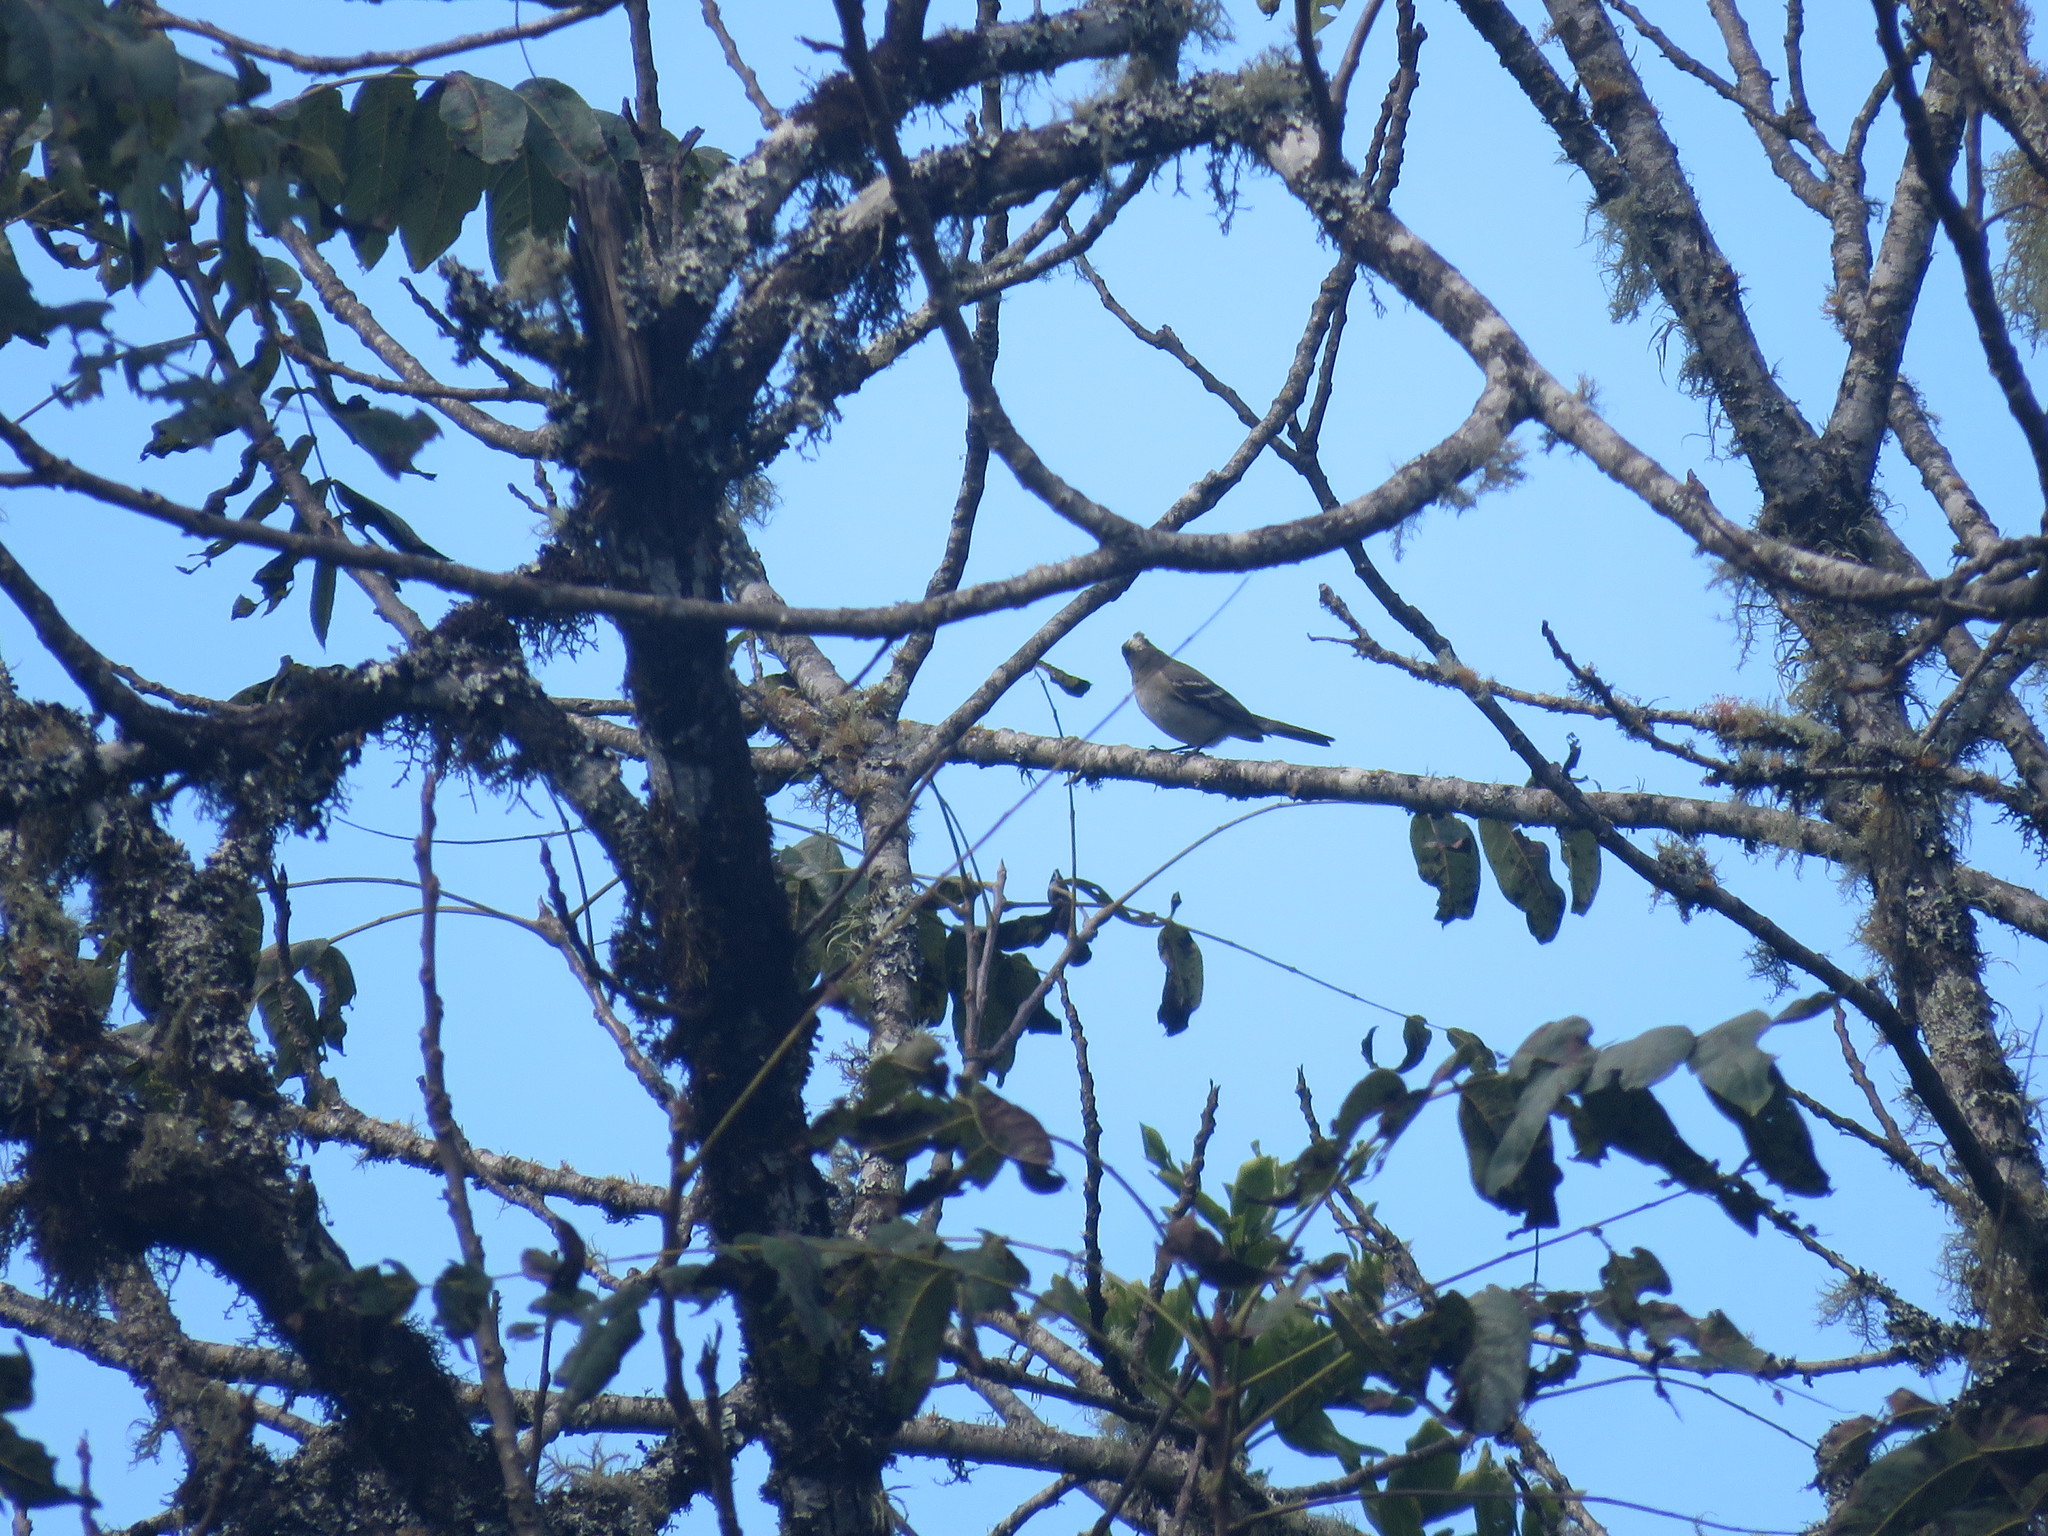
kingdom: Animalia
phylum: Chordata
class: Aves
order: Passeriformes
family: Tyrannidae
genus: Elaenia
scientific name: Elaenia albiceps
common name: White-crested elaenia
